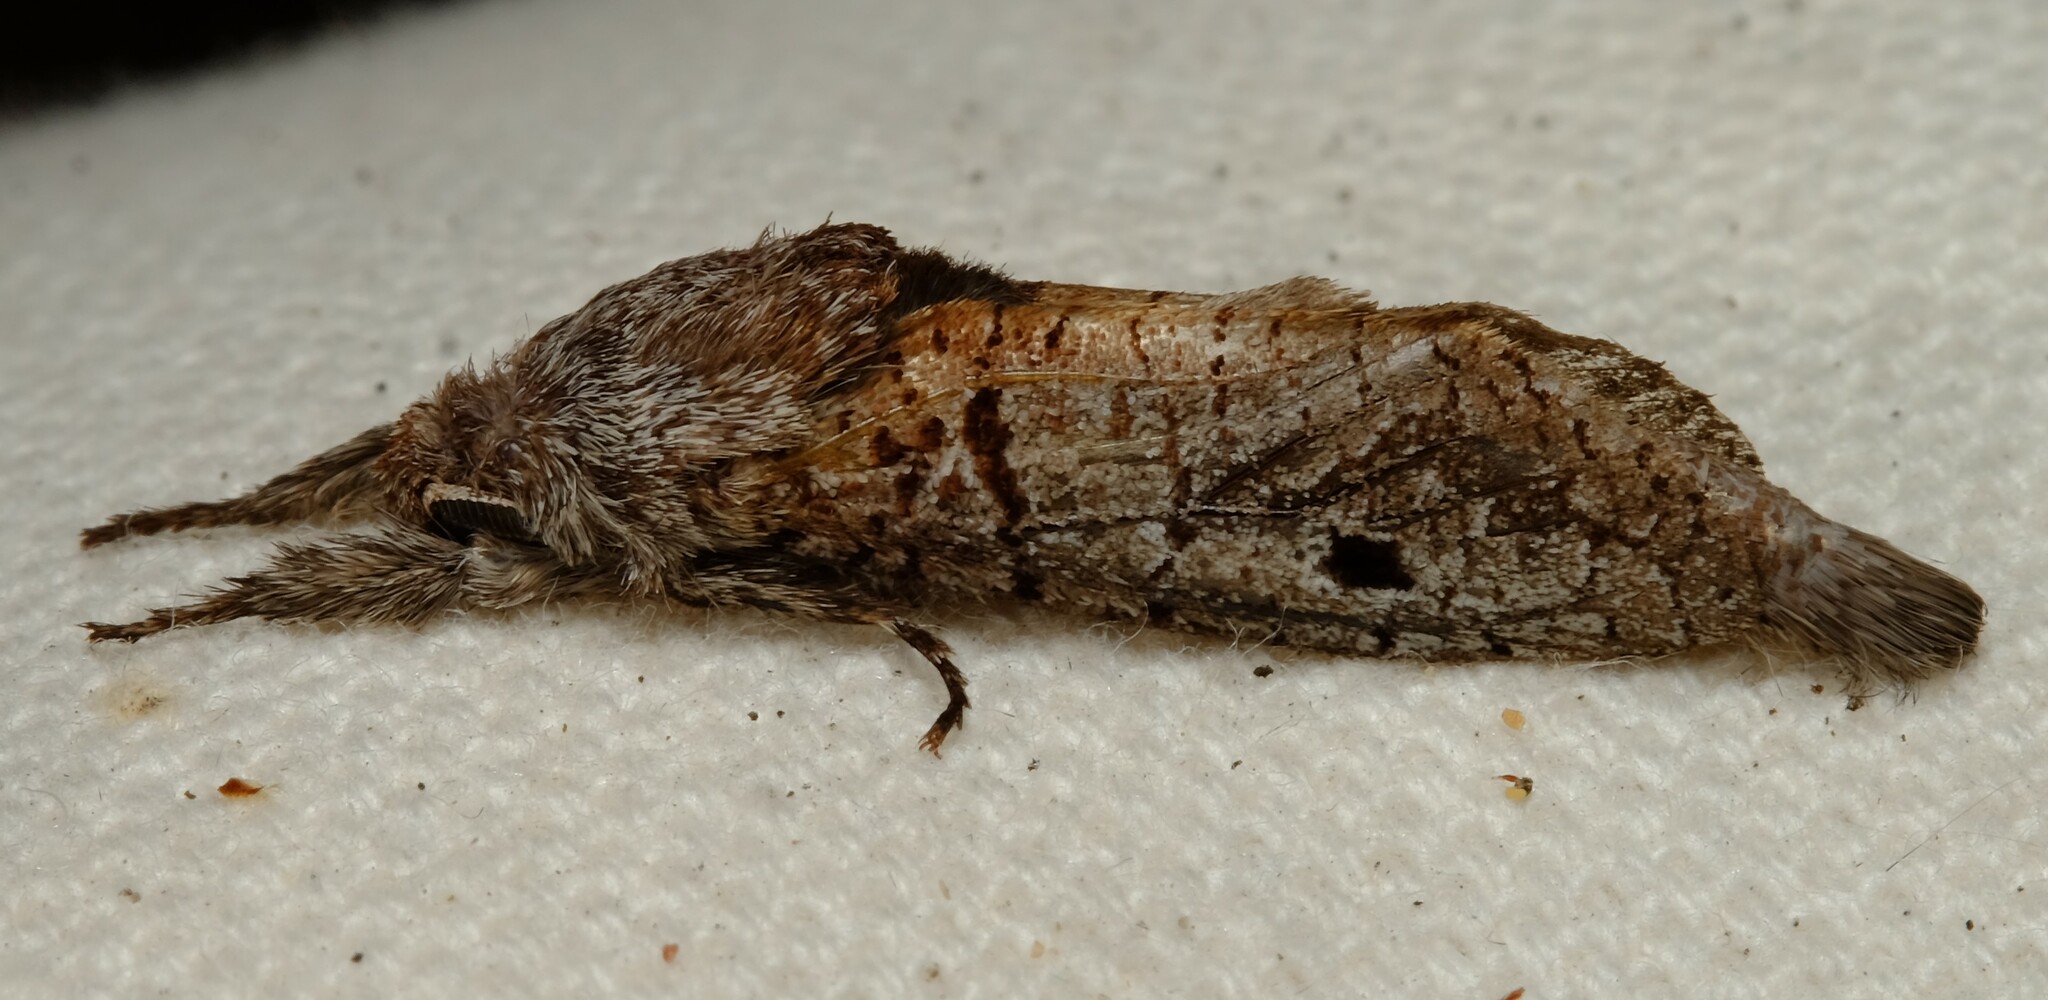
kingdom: Animalia
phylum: Arthropoda
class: Insecta
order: Lepidoptera
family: Cossidae
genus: Sympycnodes
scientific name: Sympycnodes
